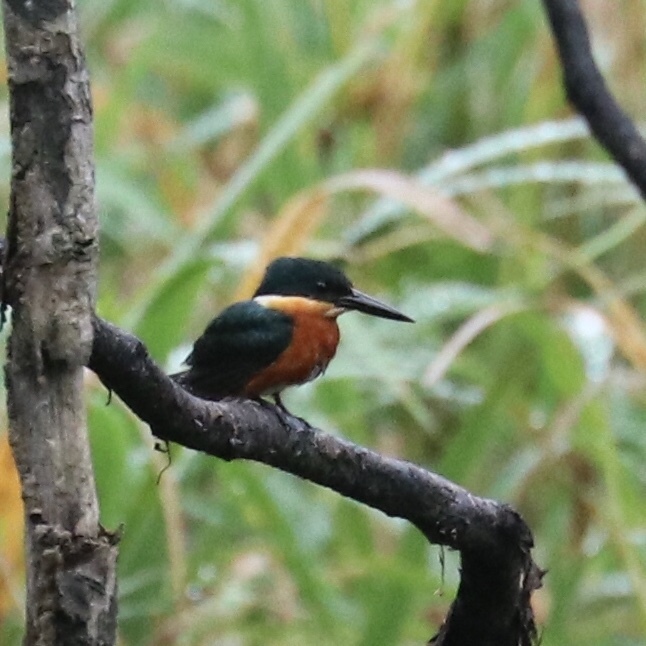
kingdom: Animalia
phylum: Chordata
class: Aves
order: Coraciiformes
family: Alcedinidae
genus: Chloroceryle
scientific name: Chloroceryle aenea
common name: American pygmy kingfisher
